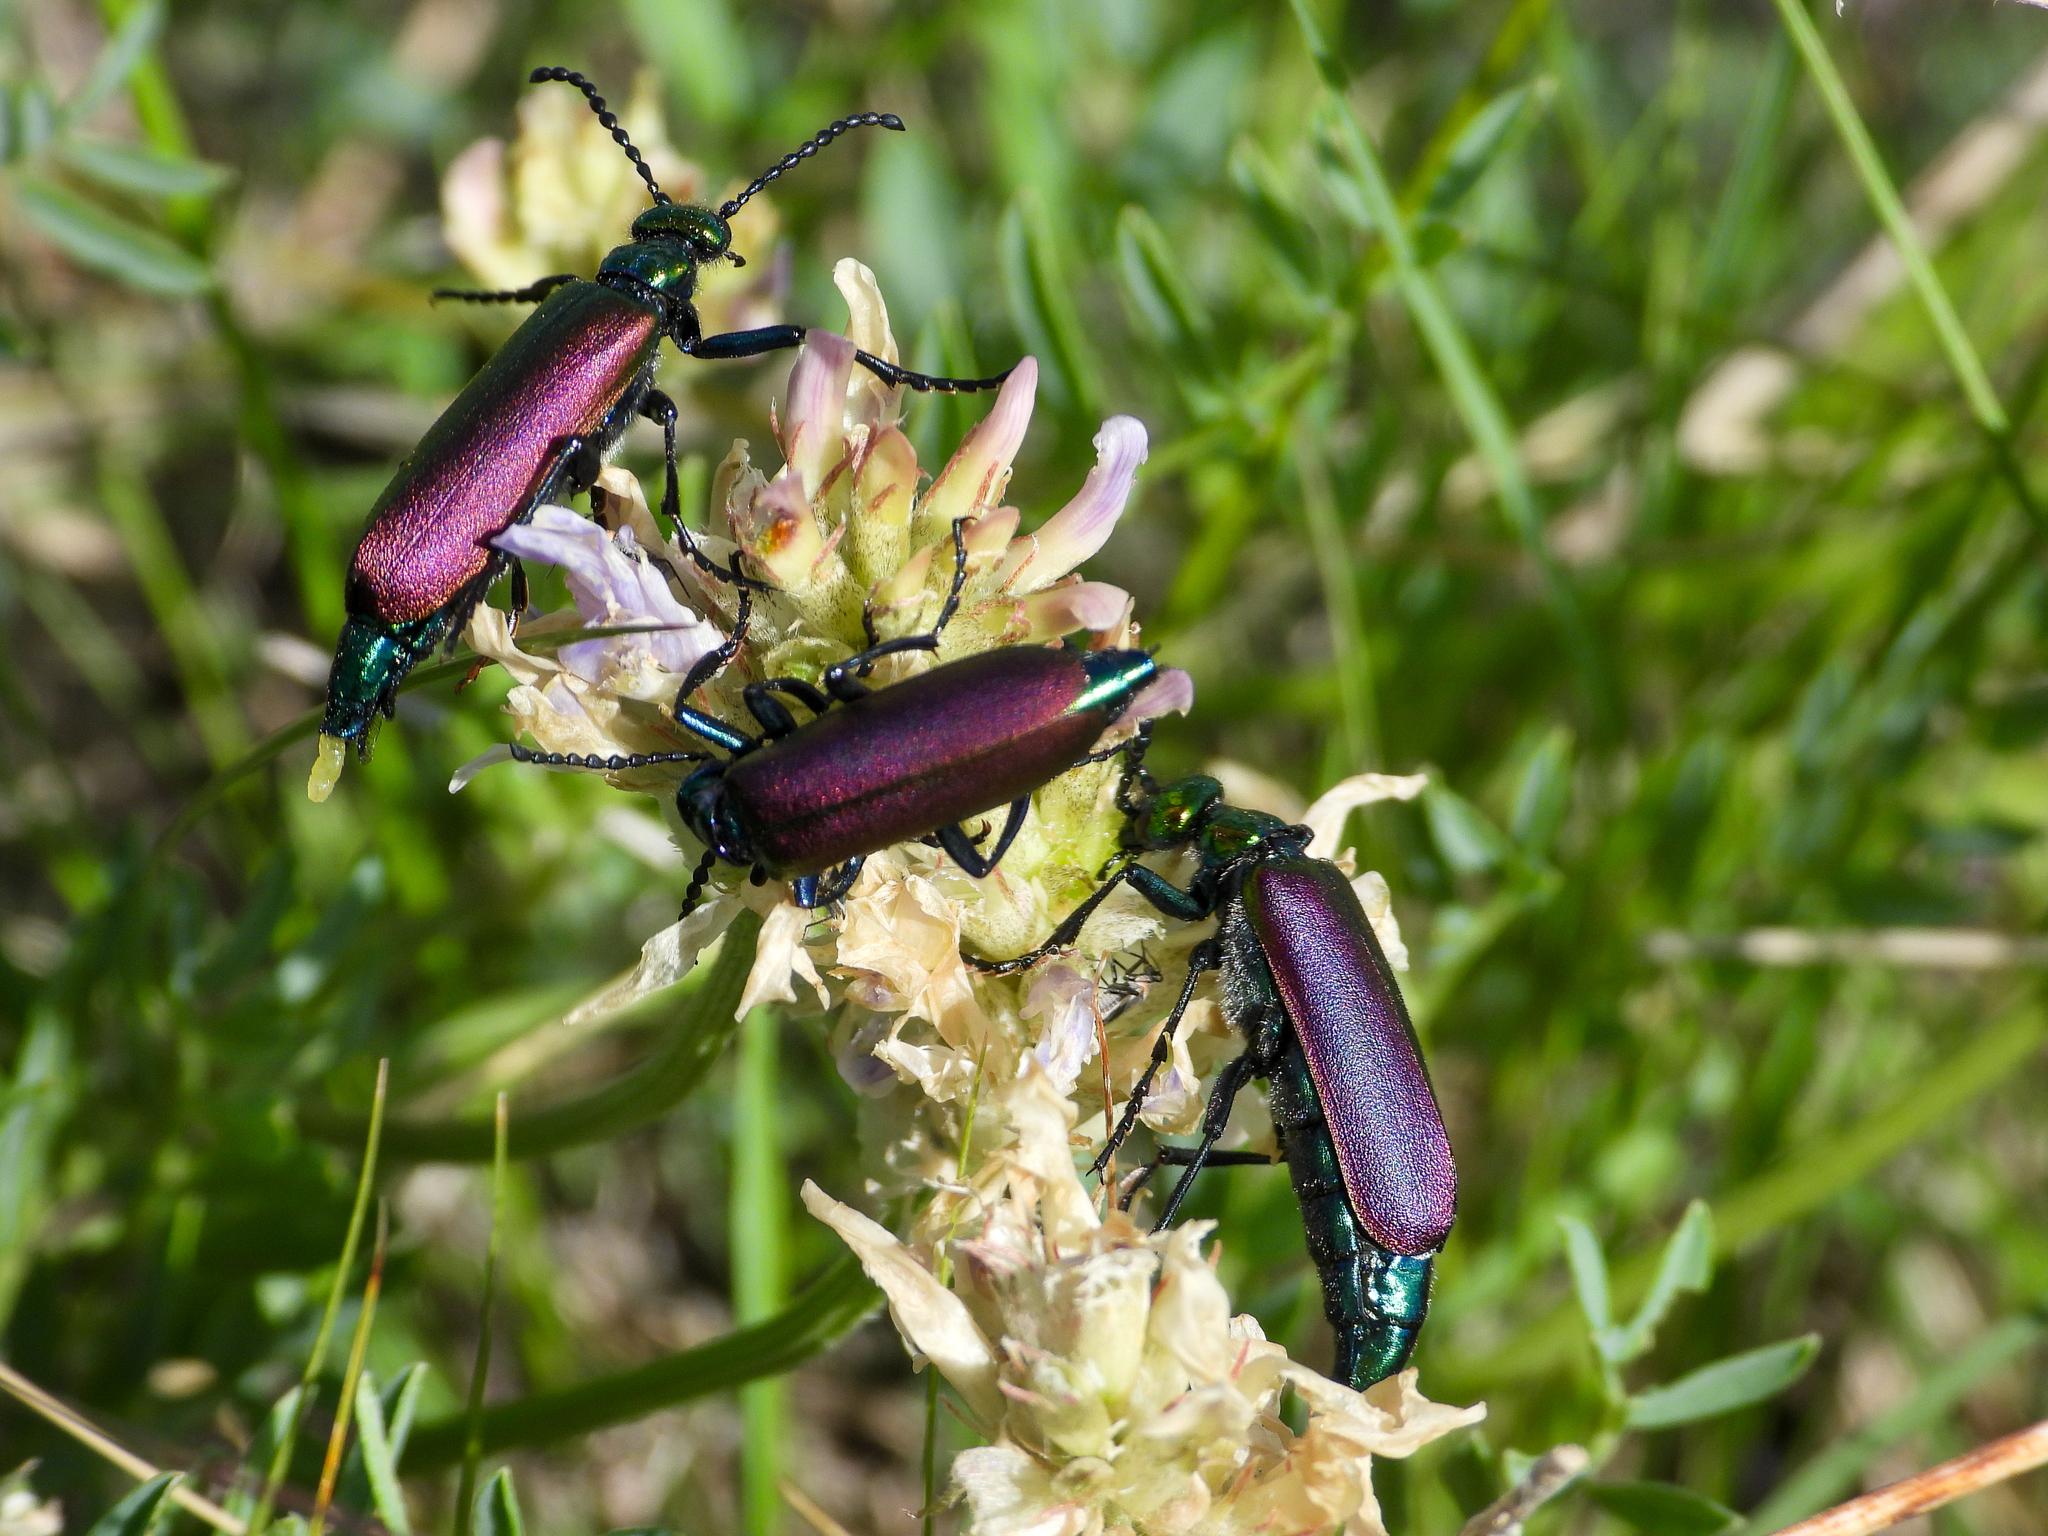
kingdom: Animalia
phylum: Arthropoda
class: Insecta
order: Coleoptera
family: Meloidae
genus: Lytta
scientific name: Lytta nuttallii
